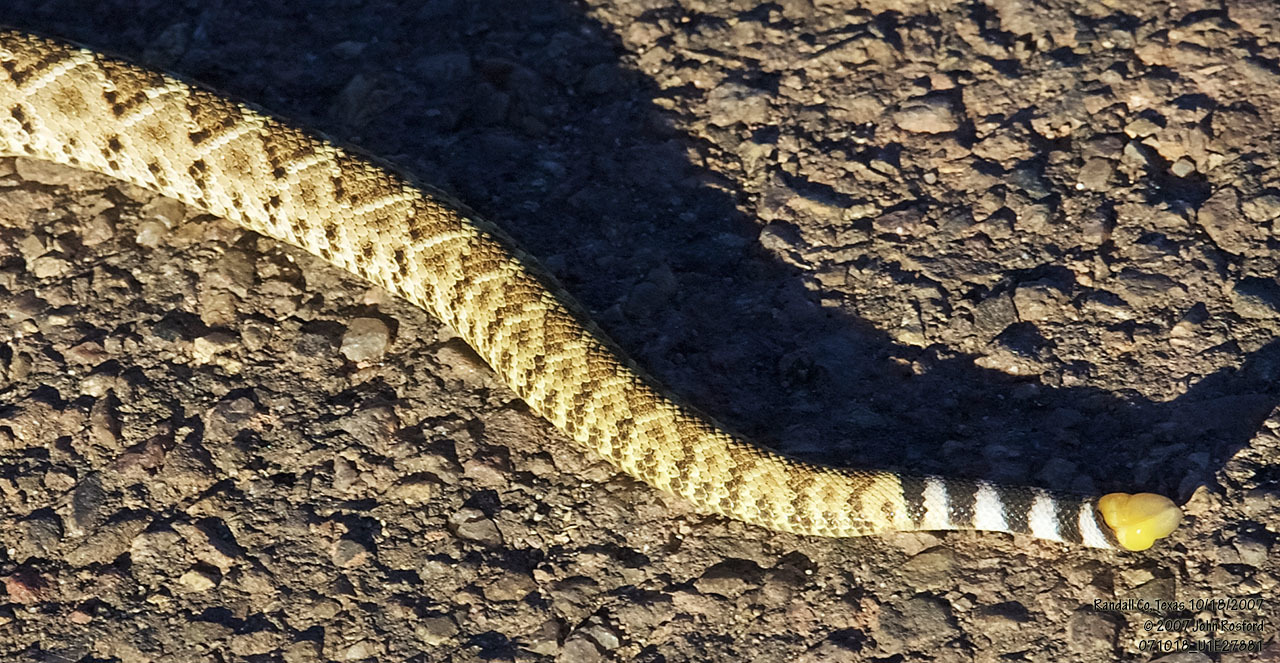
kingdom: Animalia
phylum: Chordata
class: Squamata
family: Viperidae
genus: Crotalus
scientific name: Crotalus atrox
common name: Western diamond-backed rattlesnake
